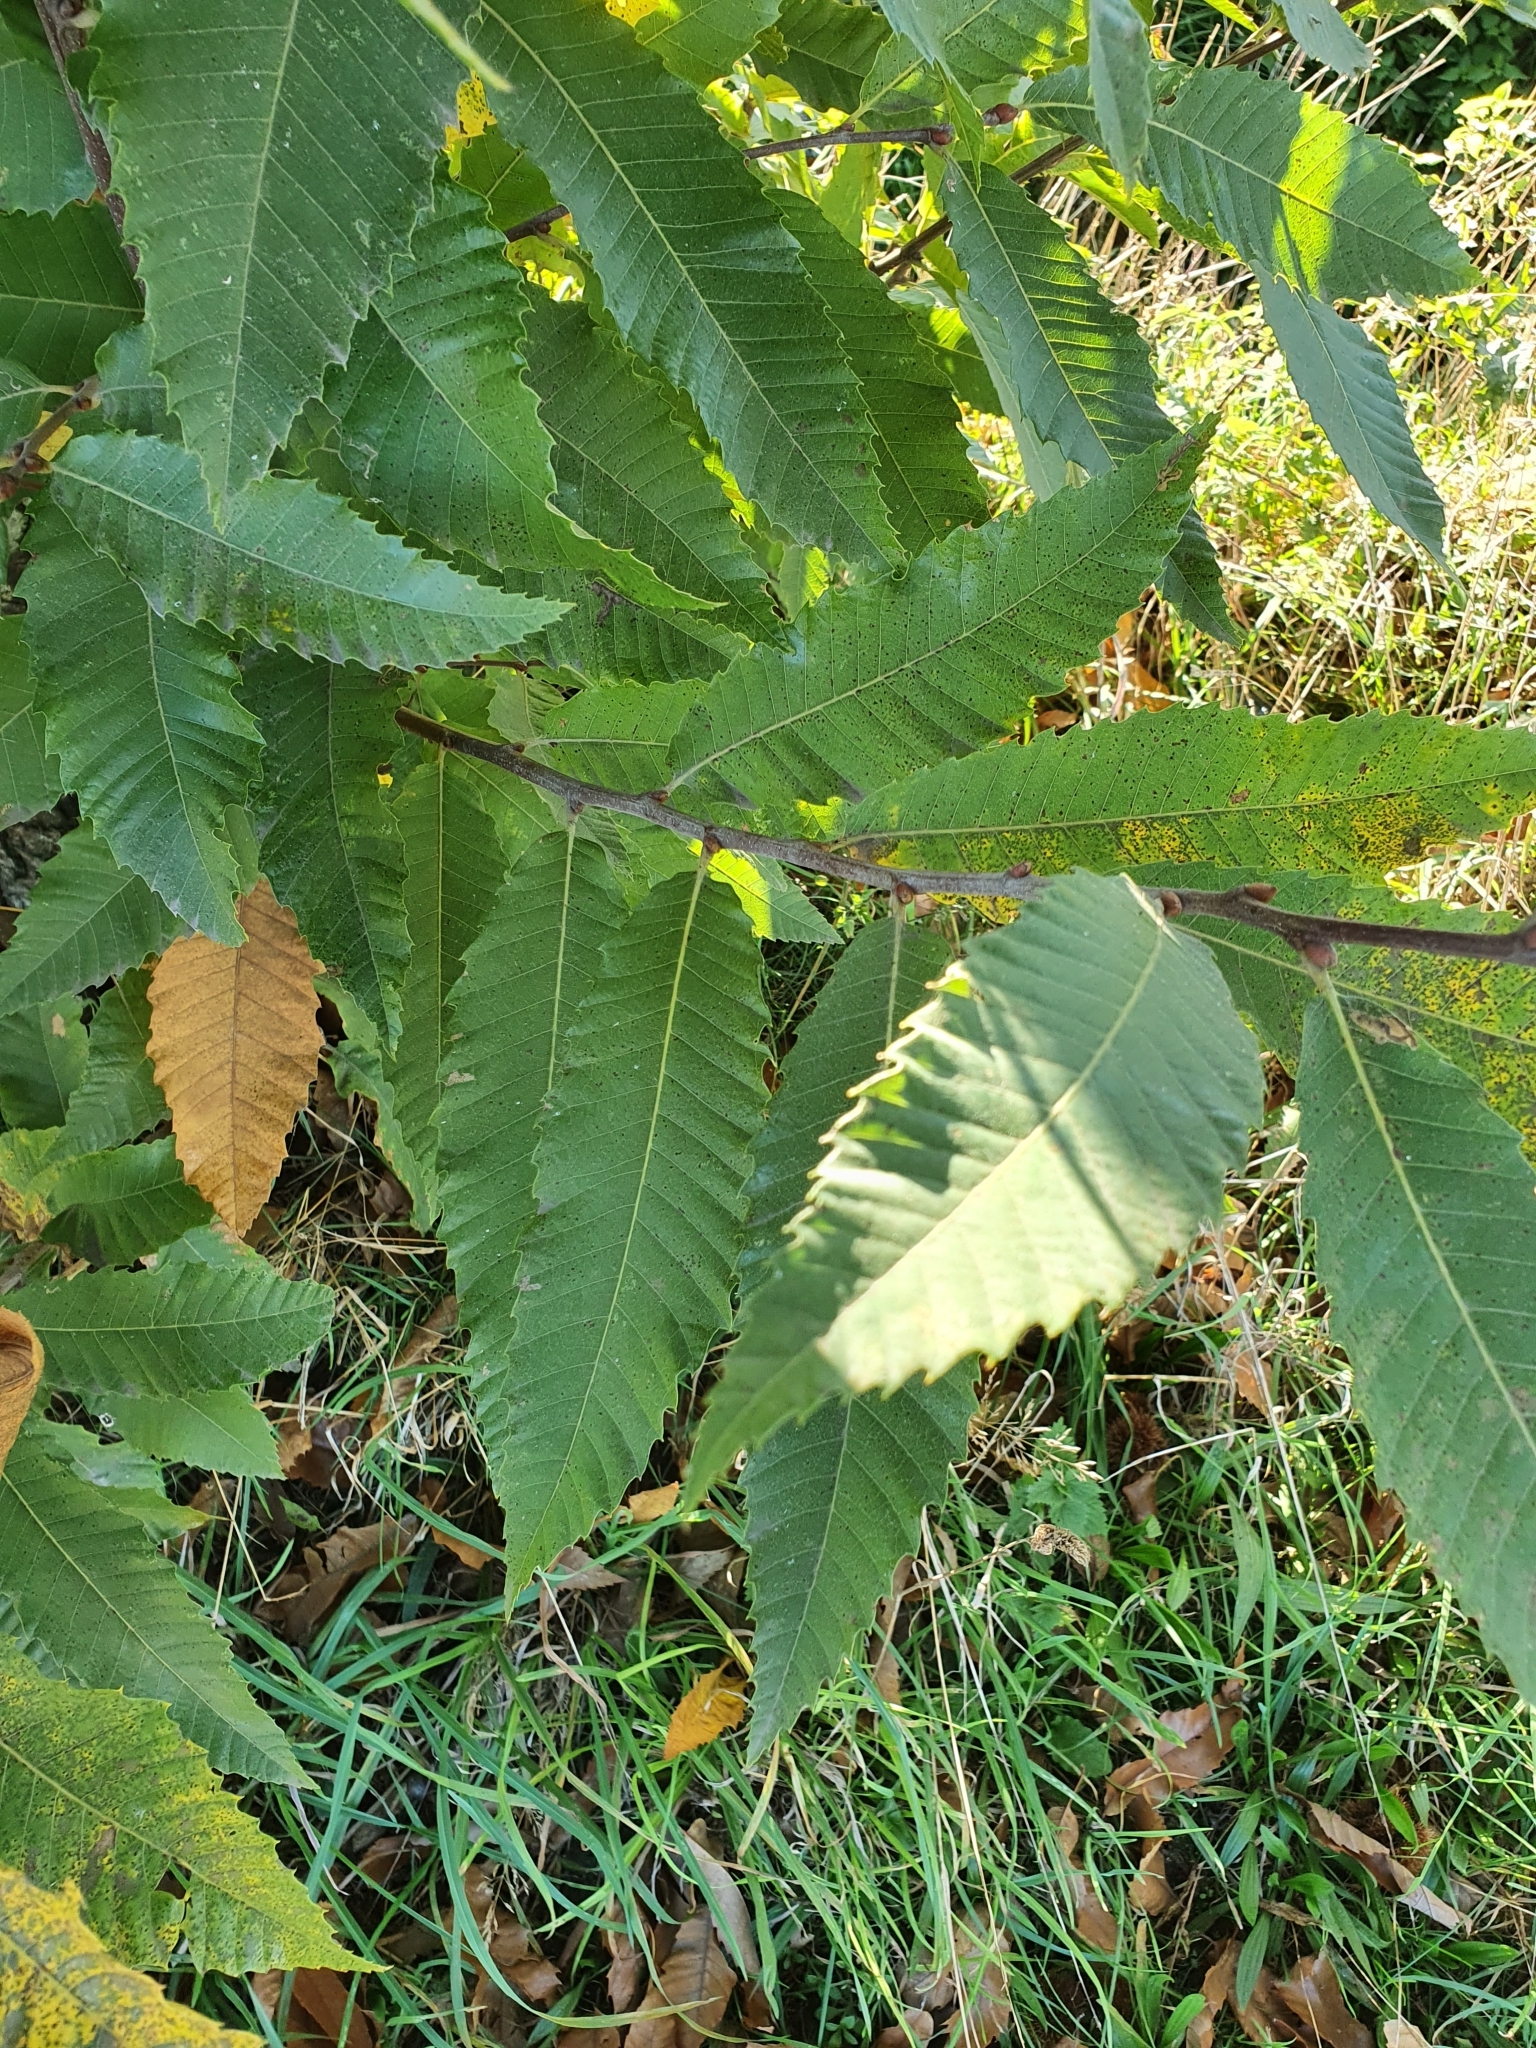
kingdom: Plantae
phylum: Tracheophyta
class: Magnoliopsida
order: Fagales
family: Fagaceae
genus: Castanea
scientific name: Castanea sativa
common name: Sweet chestnut
